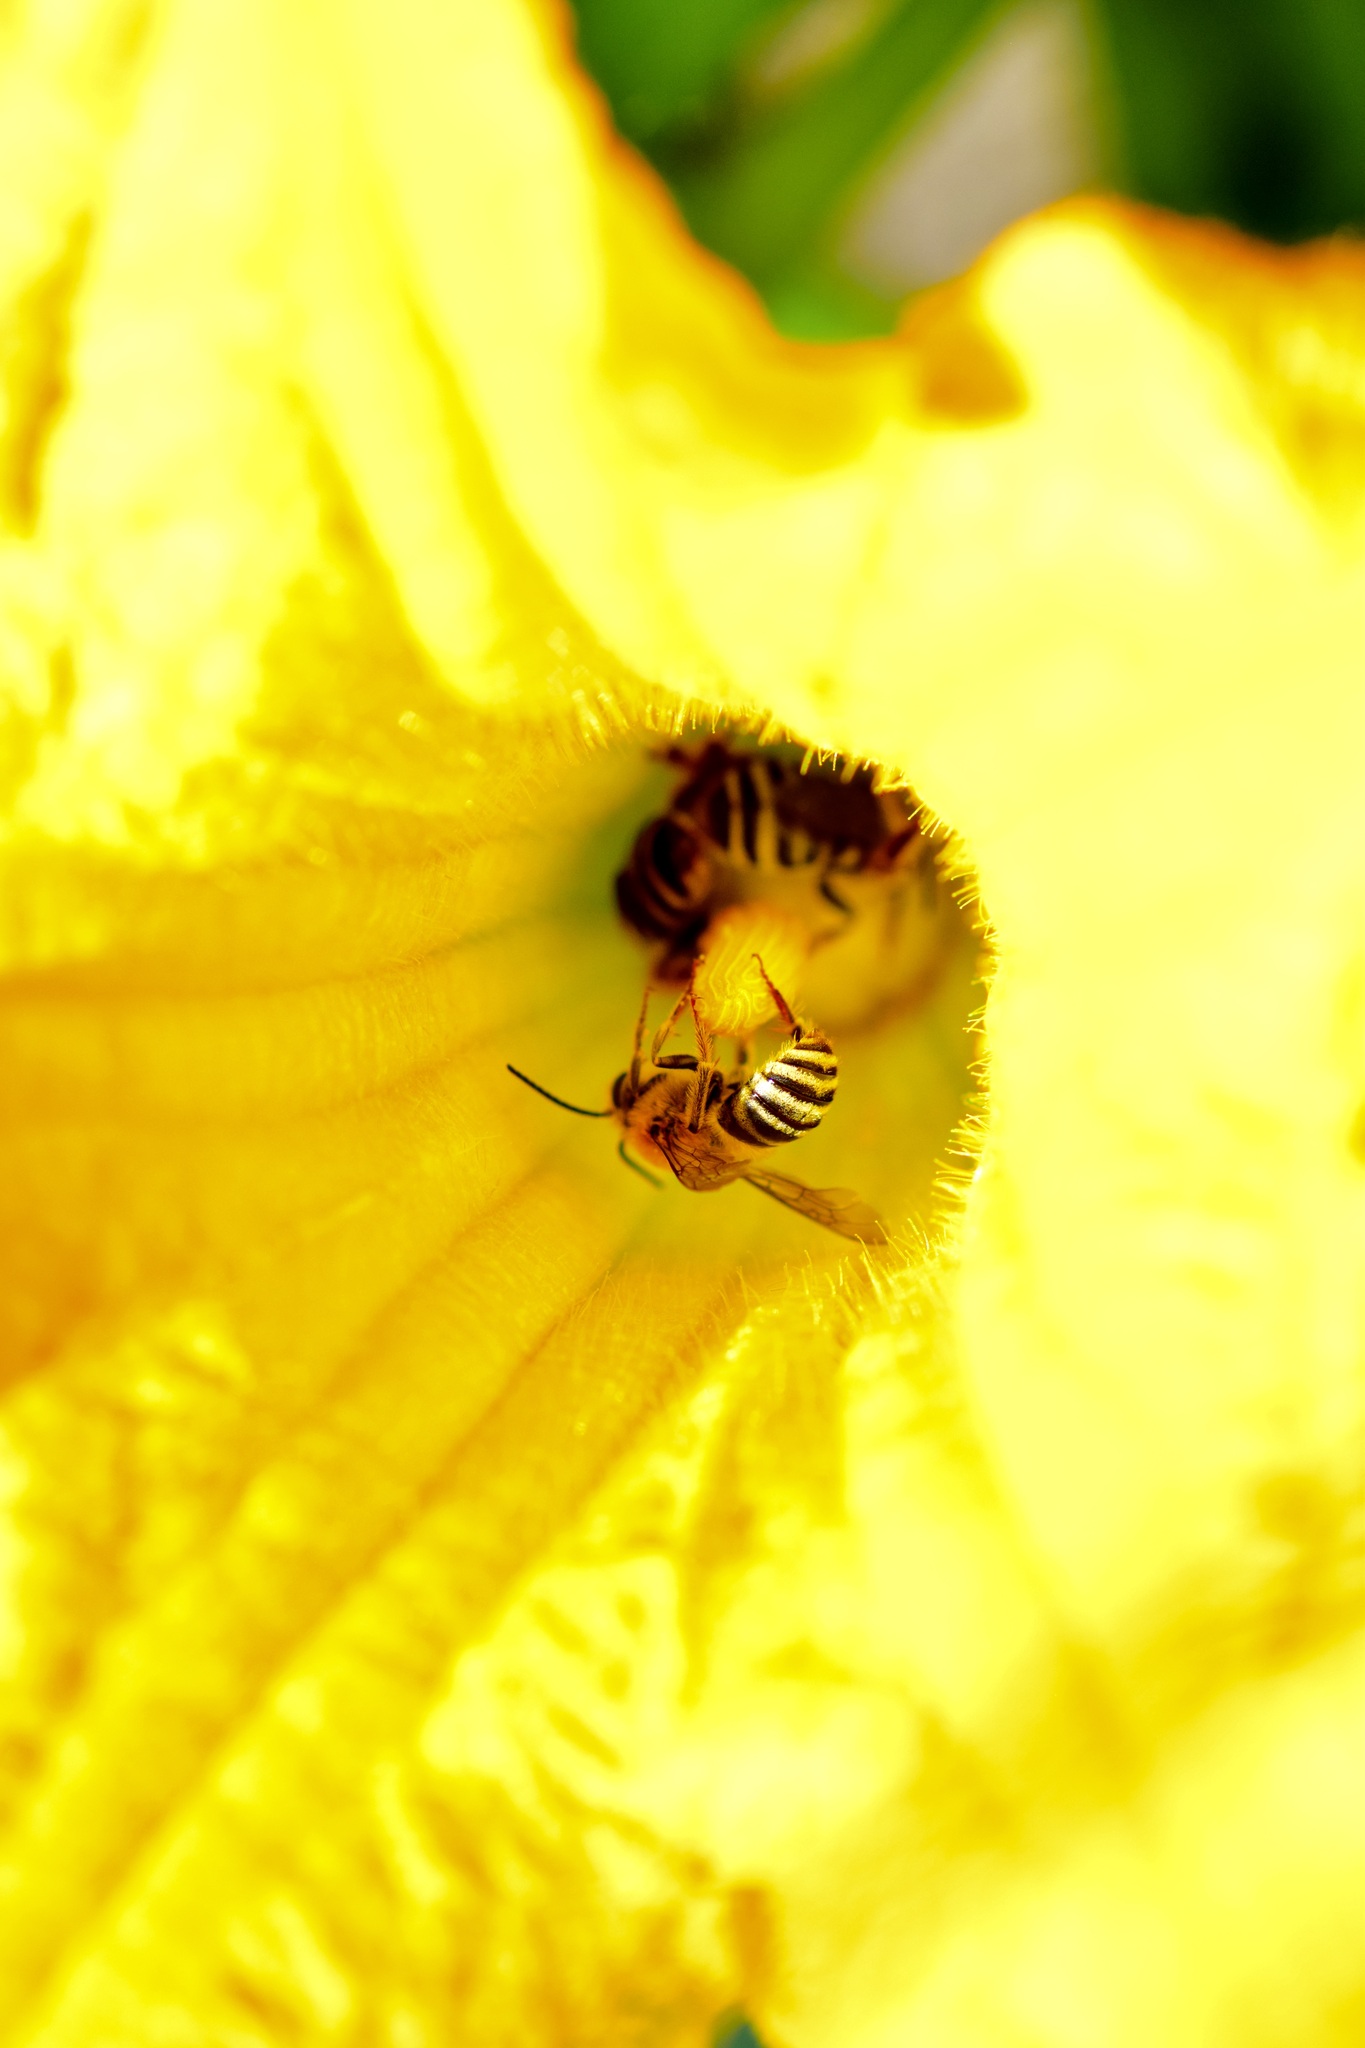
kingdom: Animalia
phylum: Arthropoda
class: Insecta
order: Hymenoptera
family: Apidae
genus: Peponapis
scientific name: Peponapis pruinosa
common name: Pruinose squash bee
